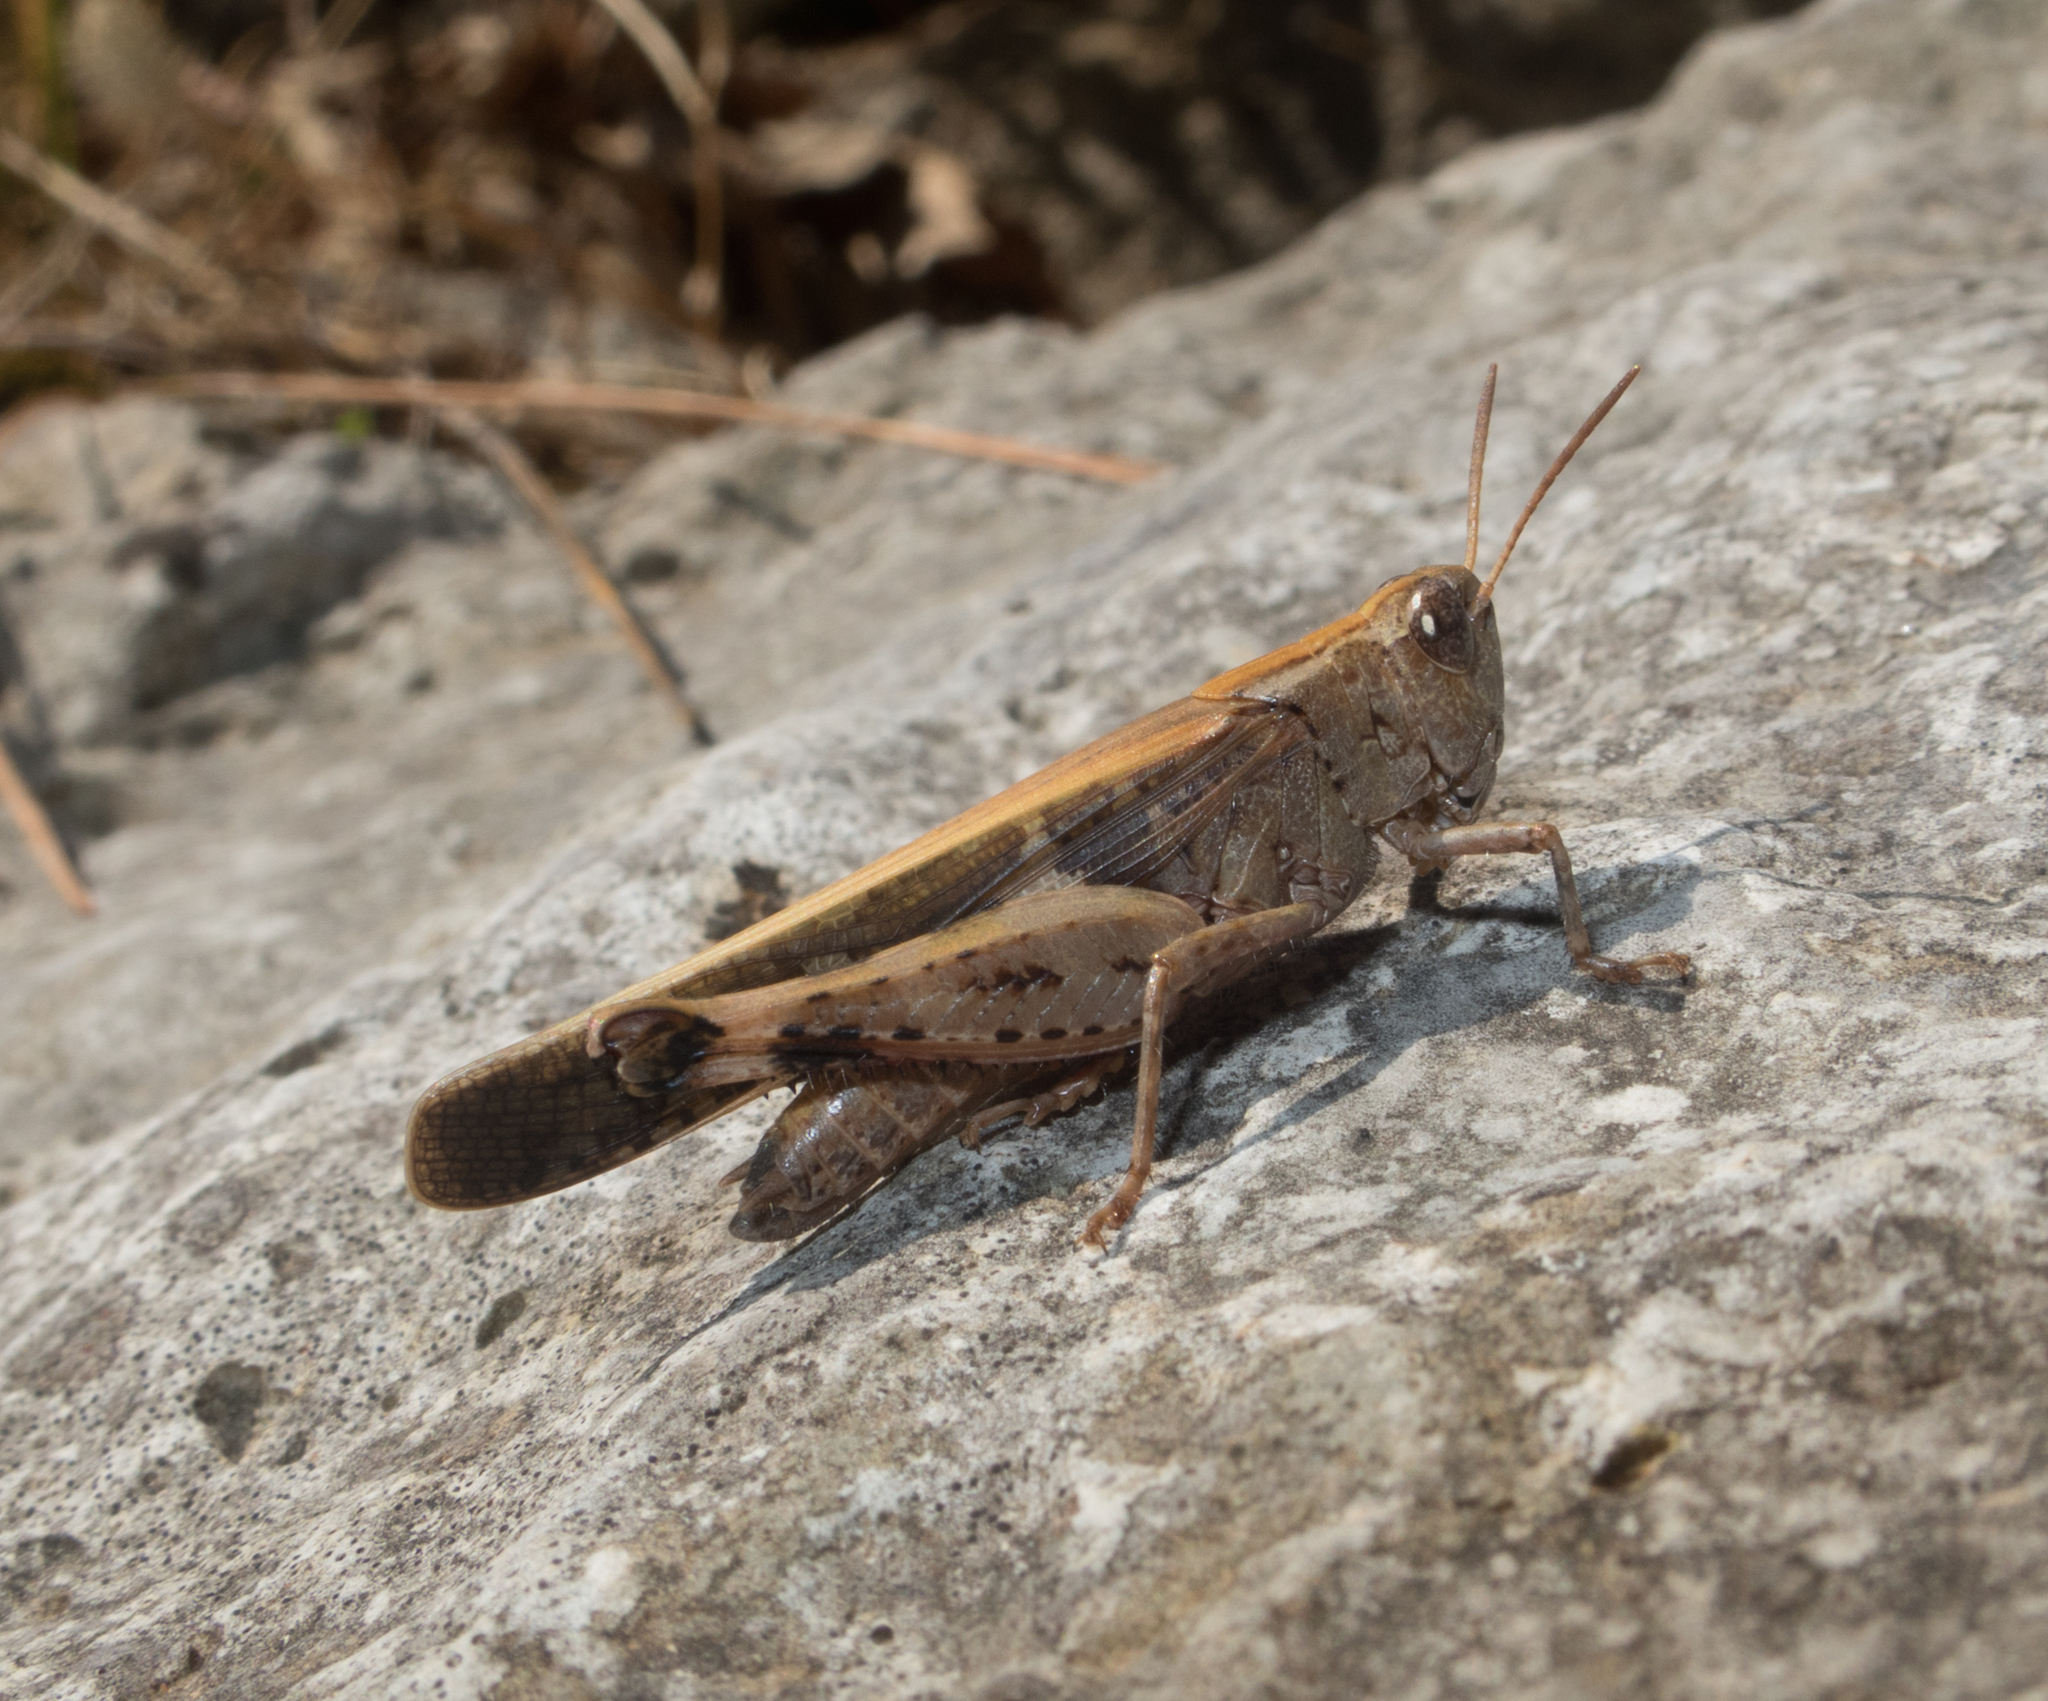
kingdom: Animalia
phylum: Arthropoda
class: Insecta
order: Orthoptera
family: Acrididae
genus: Aiolopus
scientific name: Aiolopus strepens
